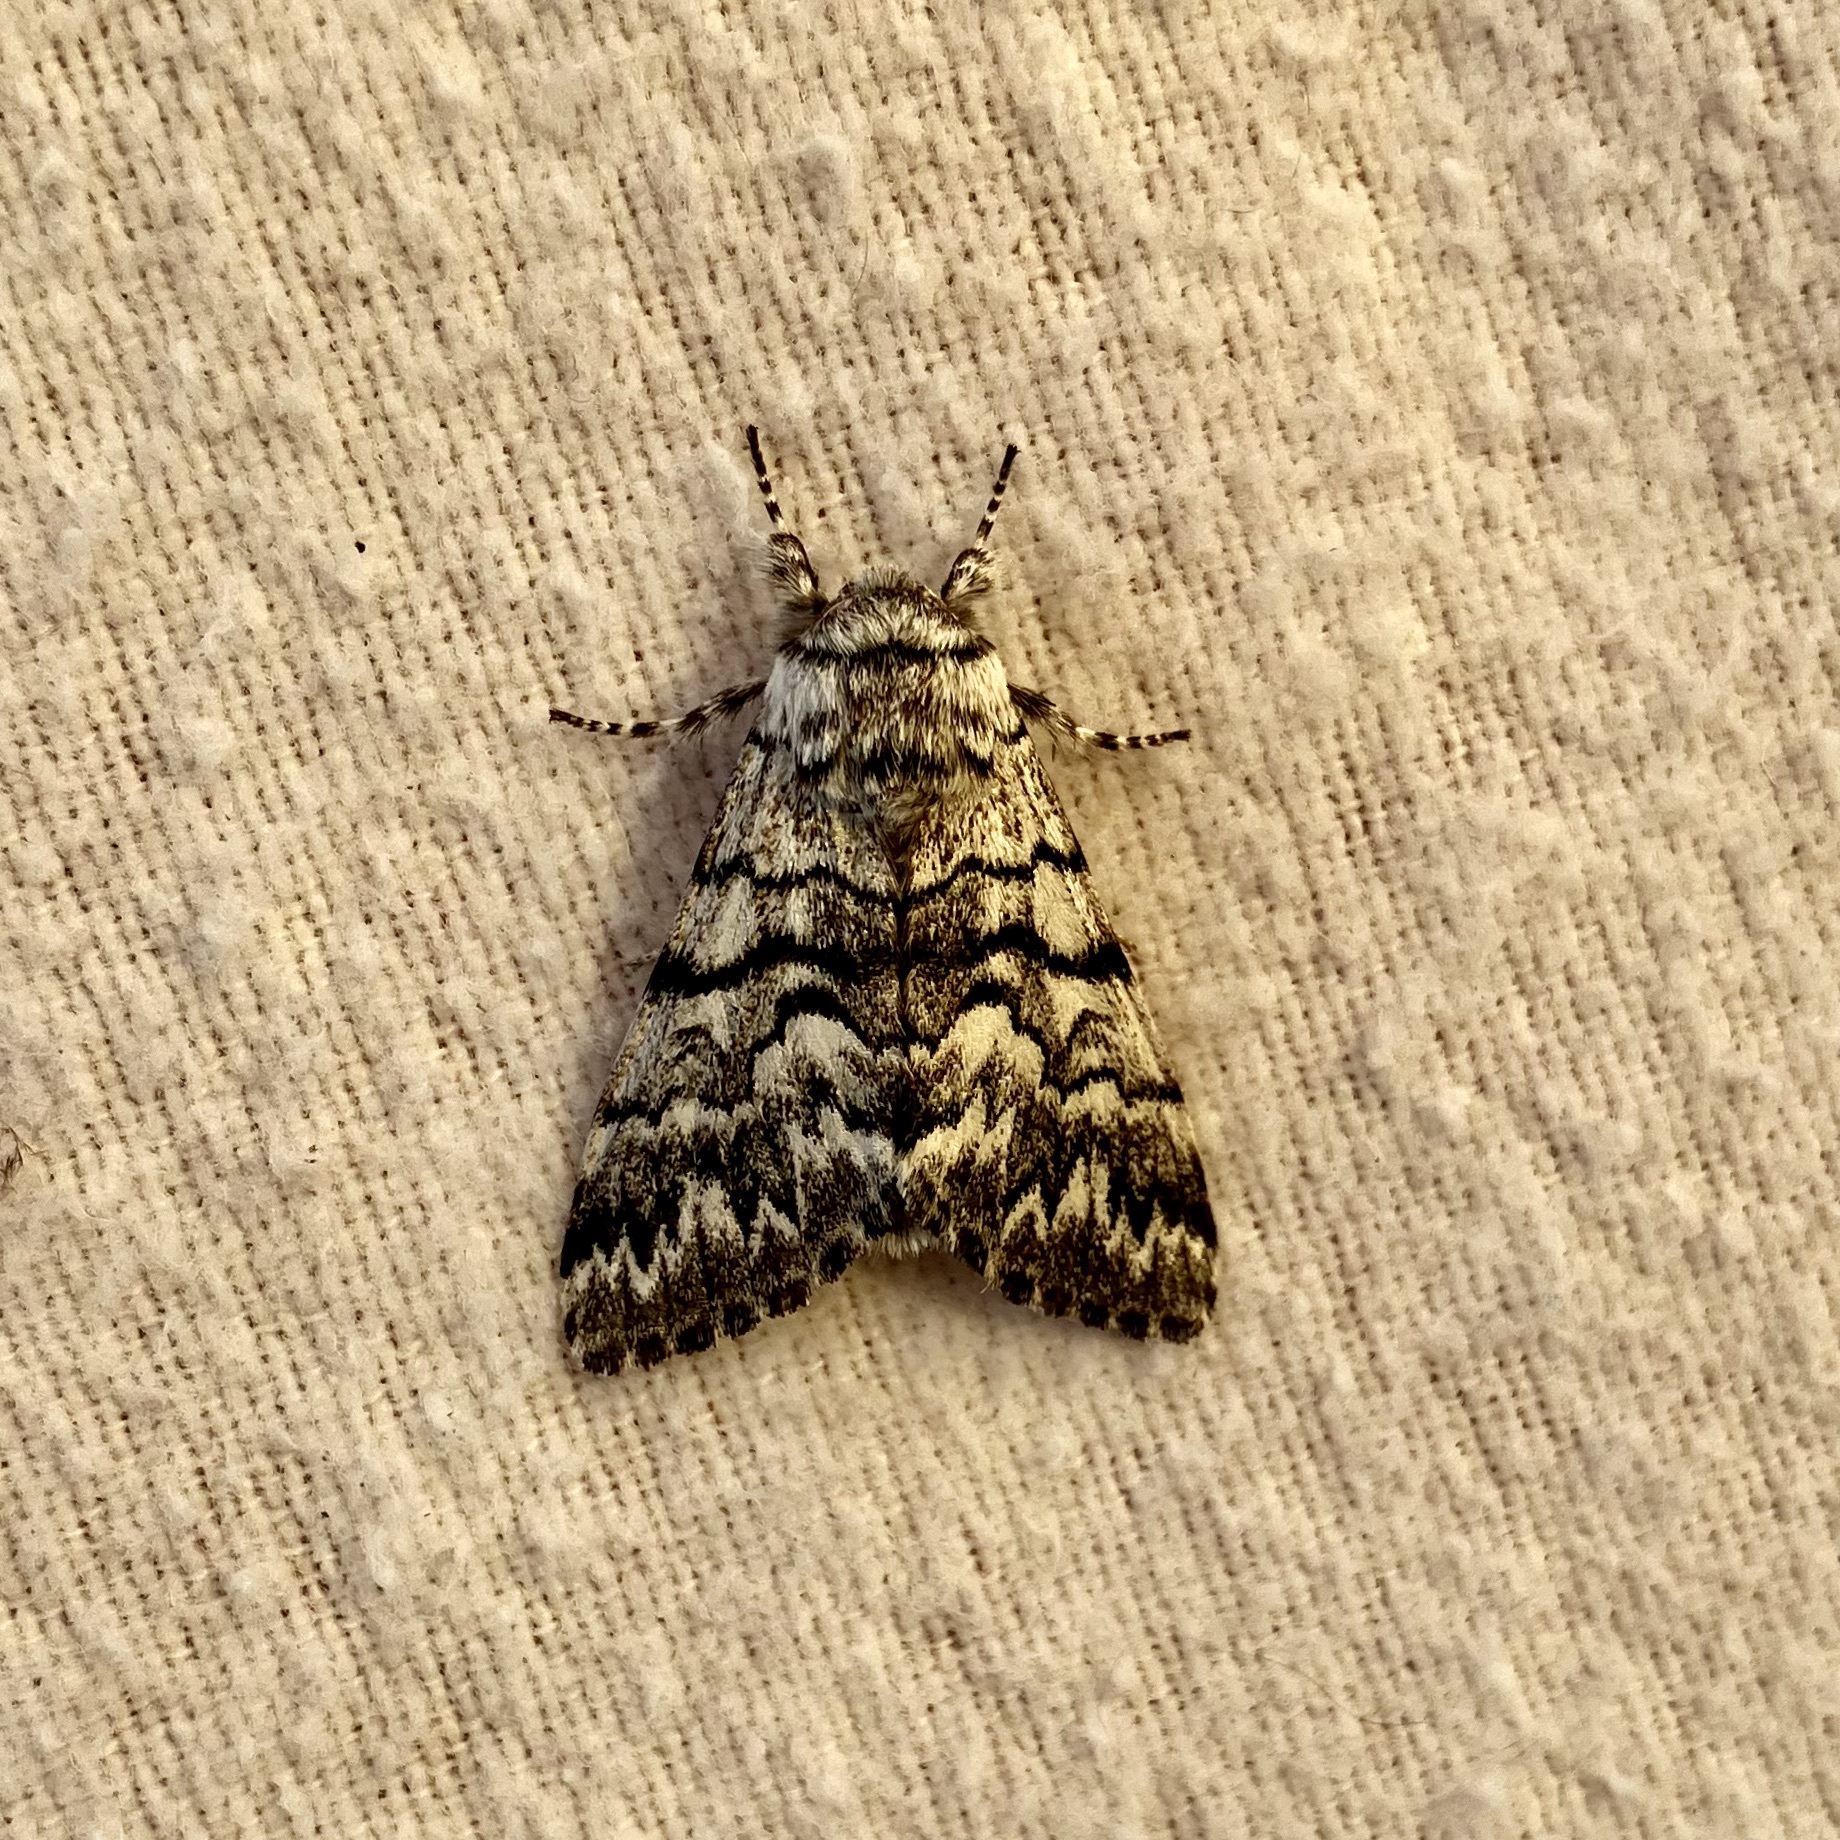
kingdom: Animalia
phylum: Arthropoda
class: Insecta
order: Lepidoptera
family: Noctuidae
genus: Panthea
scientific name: Panthea virginarius
